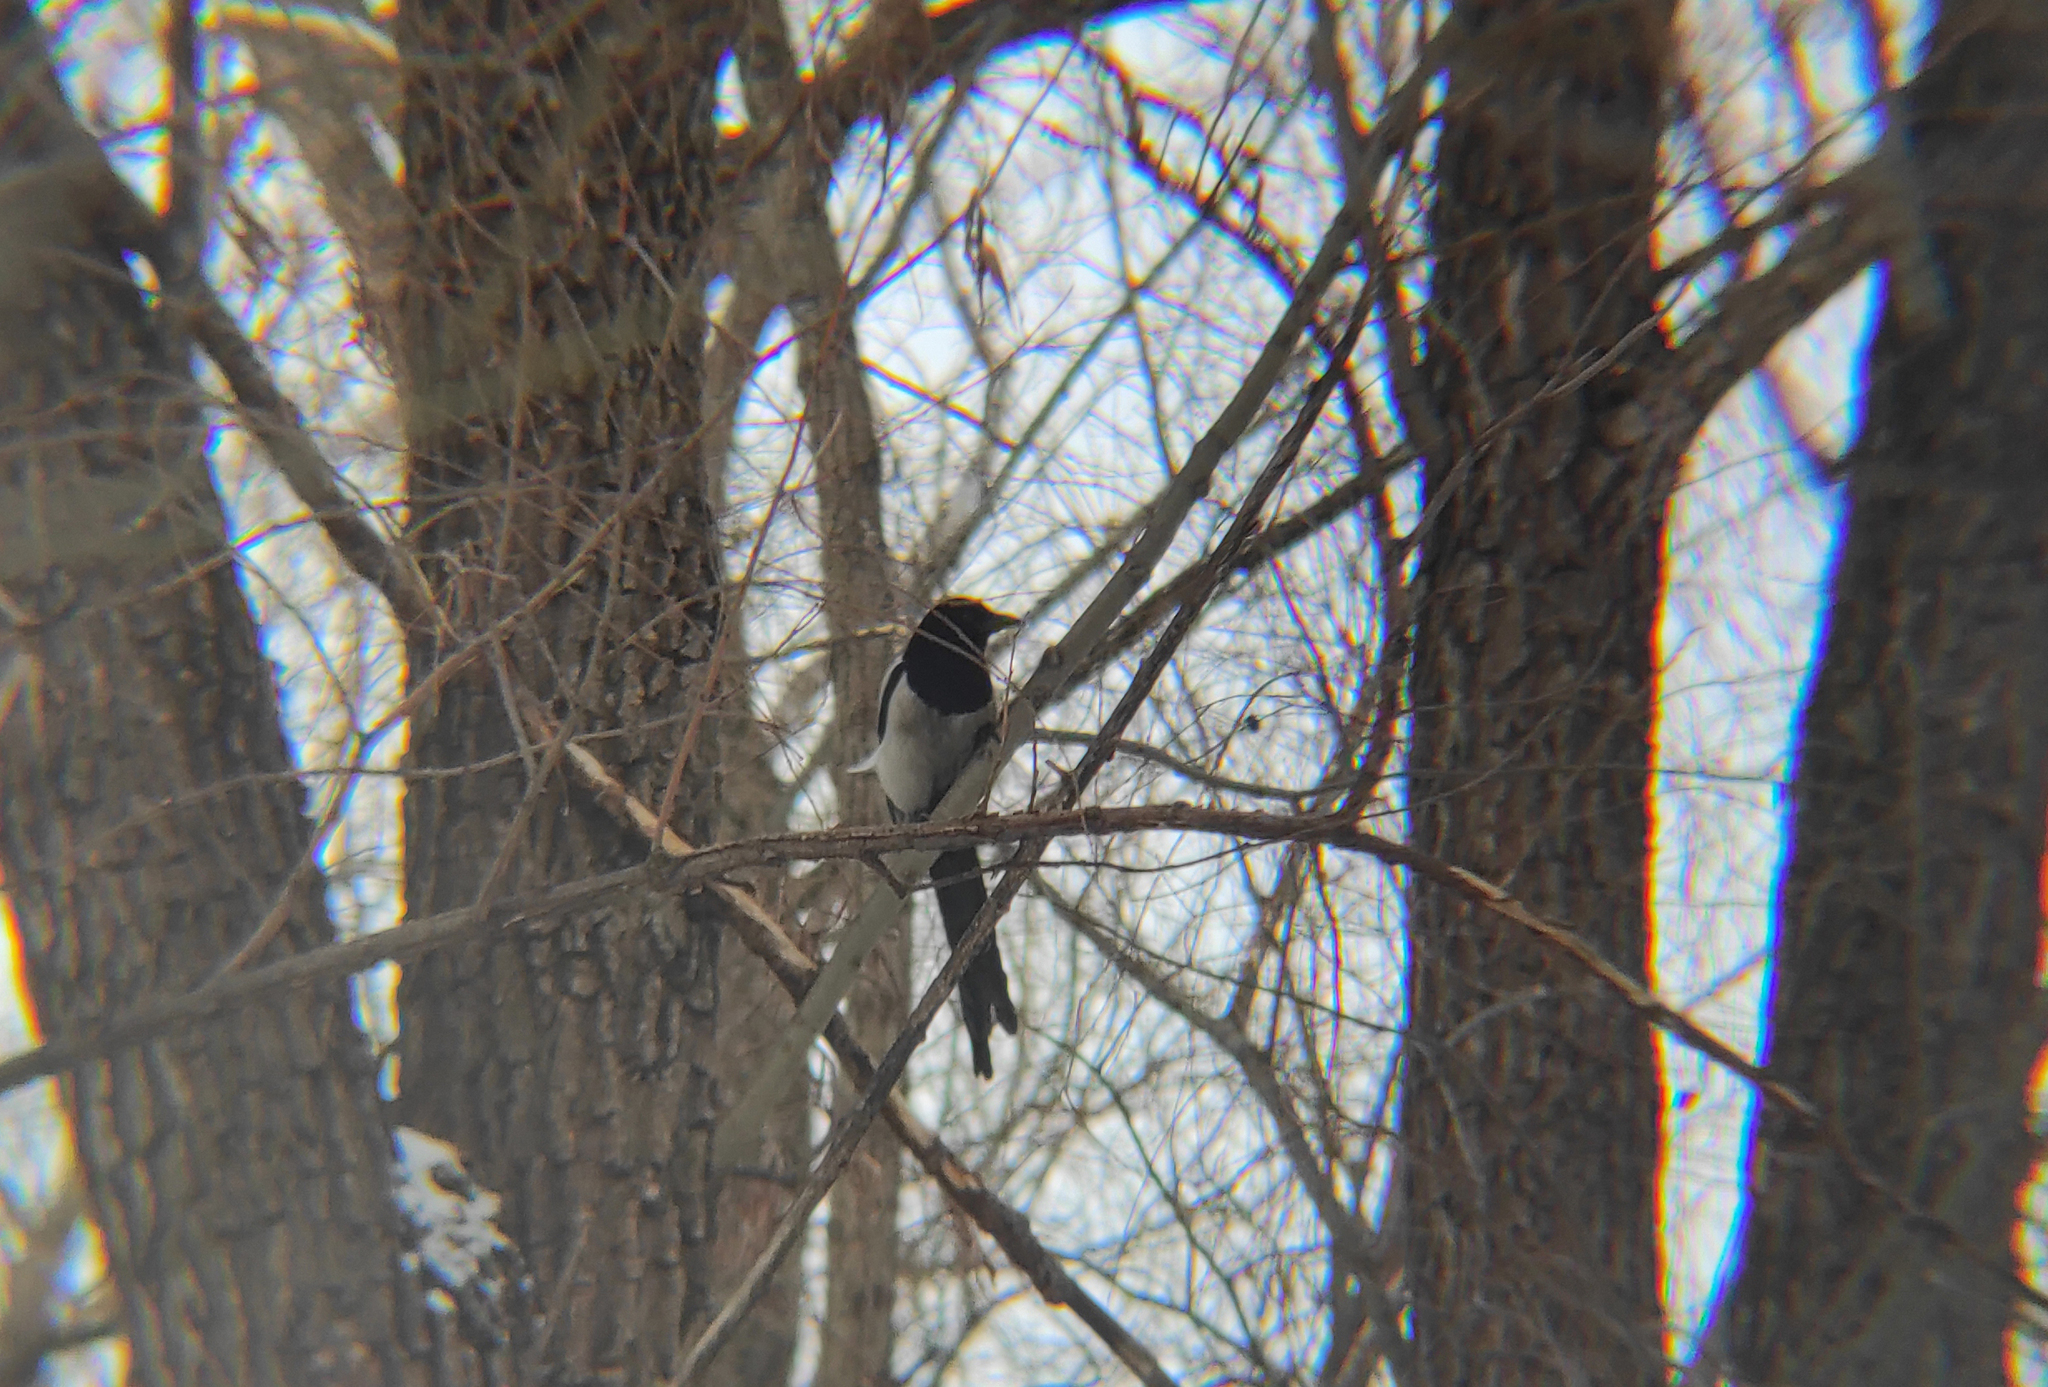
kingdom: Animalia
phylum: Chordata
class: Aves
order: Passeriformes
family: Corvidae
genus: Pica
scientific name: Pica pica
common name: Eurasian magpie
